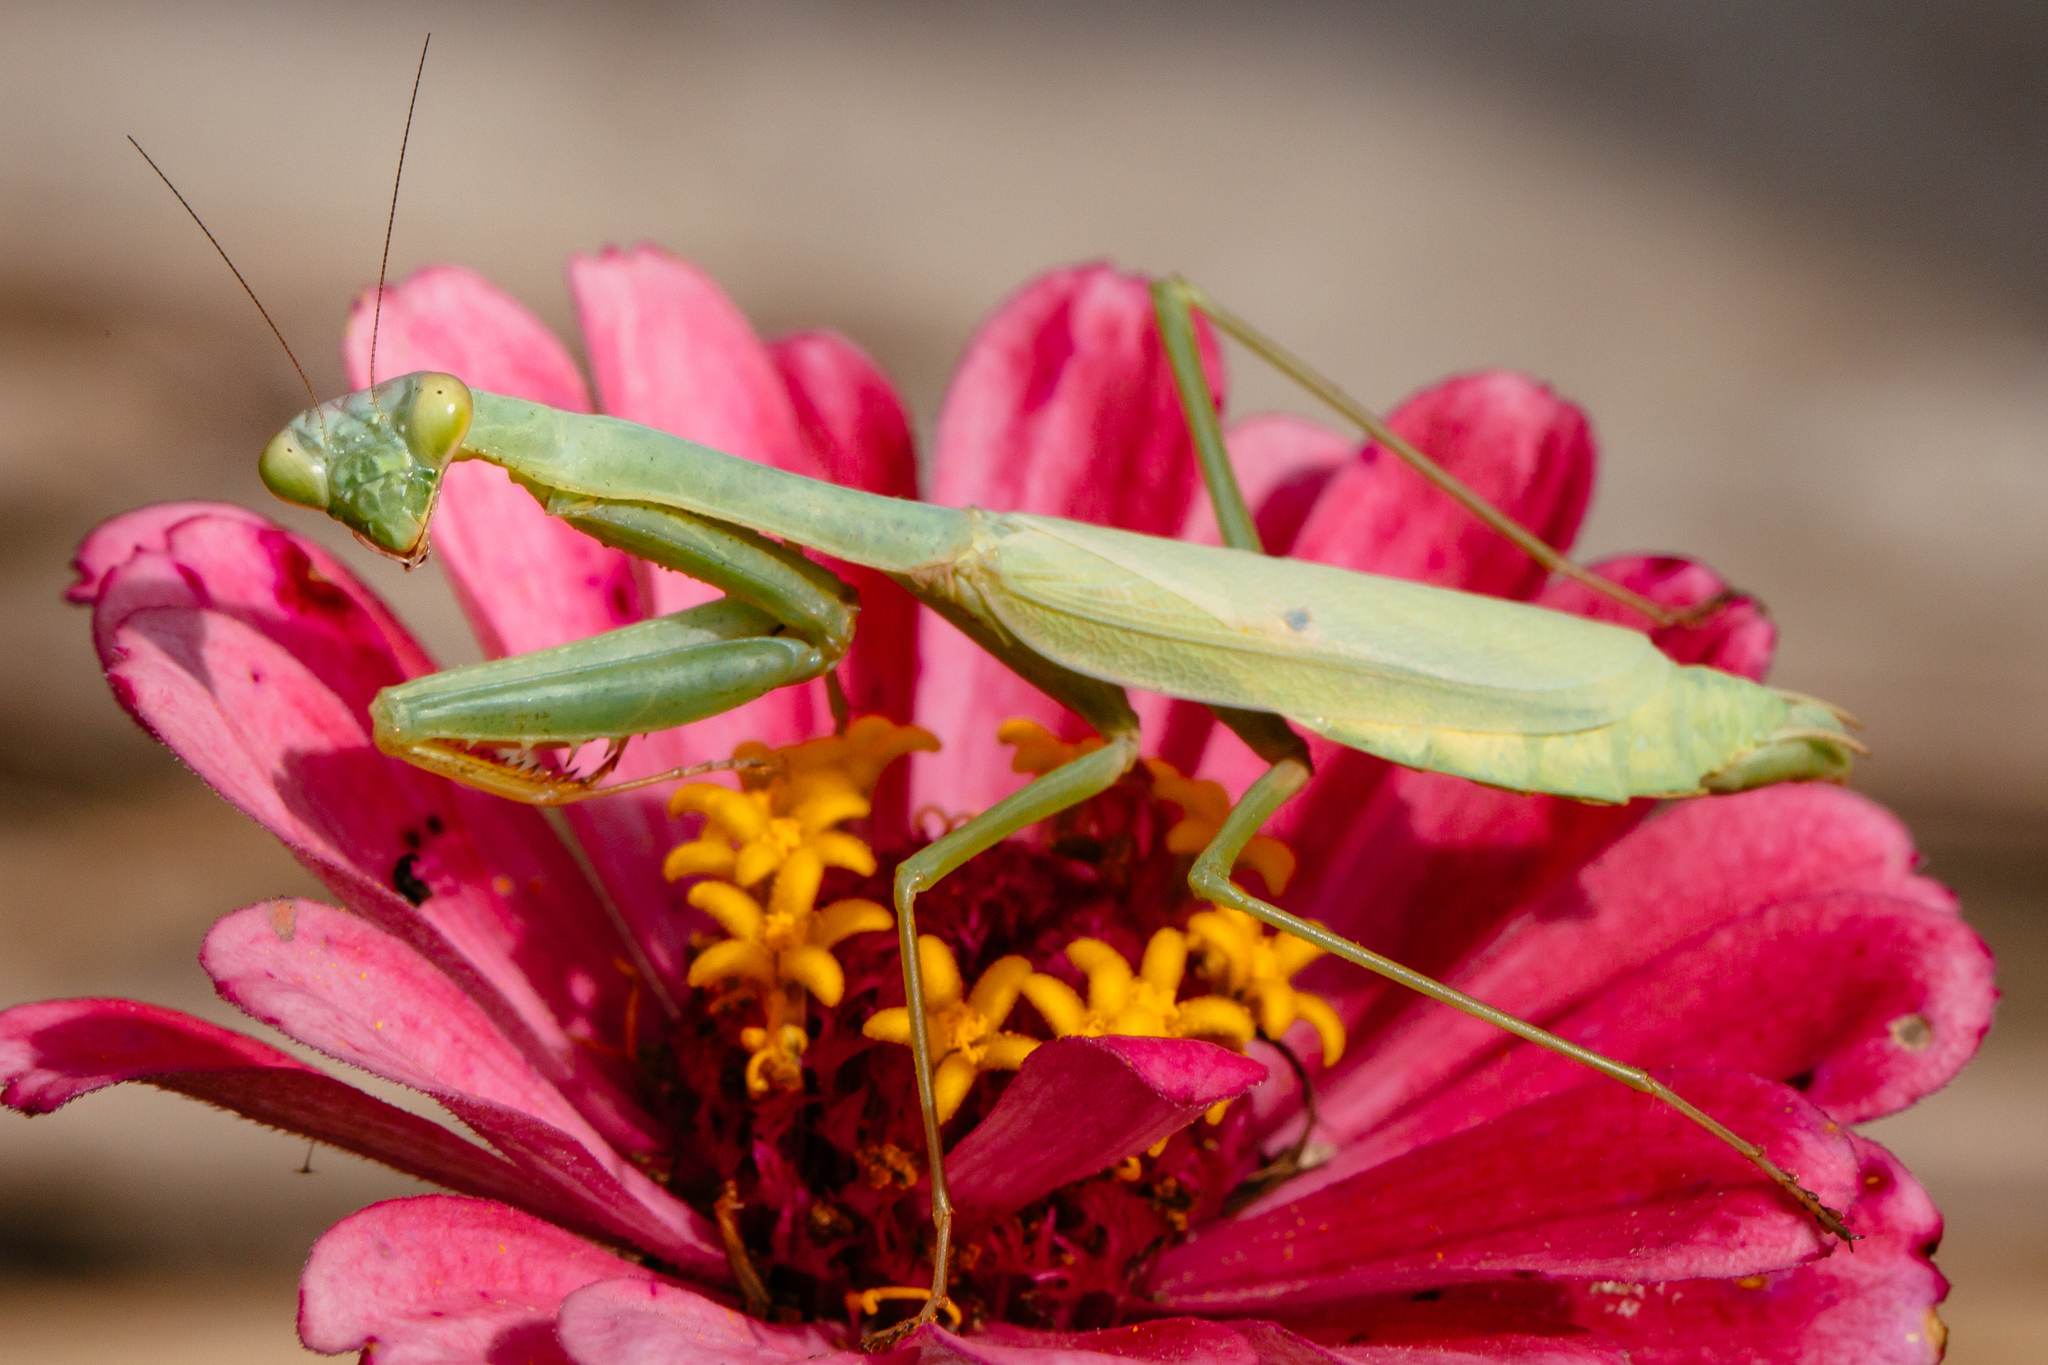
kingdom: Animalia
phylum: Arthropoda
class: Insecta
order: Mantodea
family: Mantidae
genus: Stagmomantis
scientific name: Stagmomantis carolina
